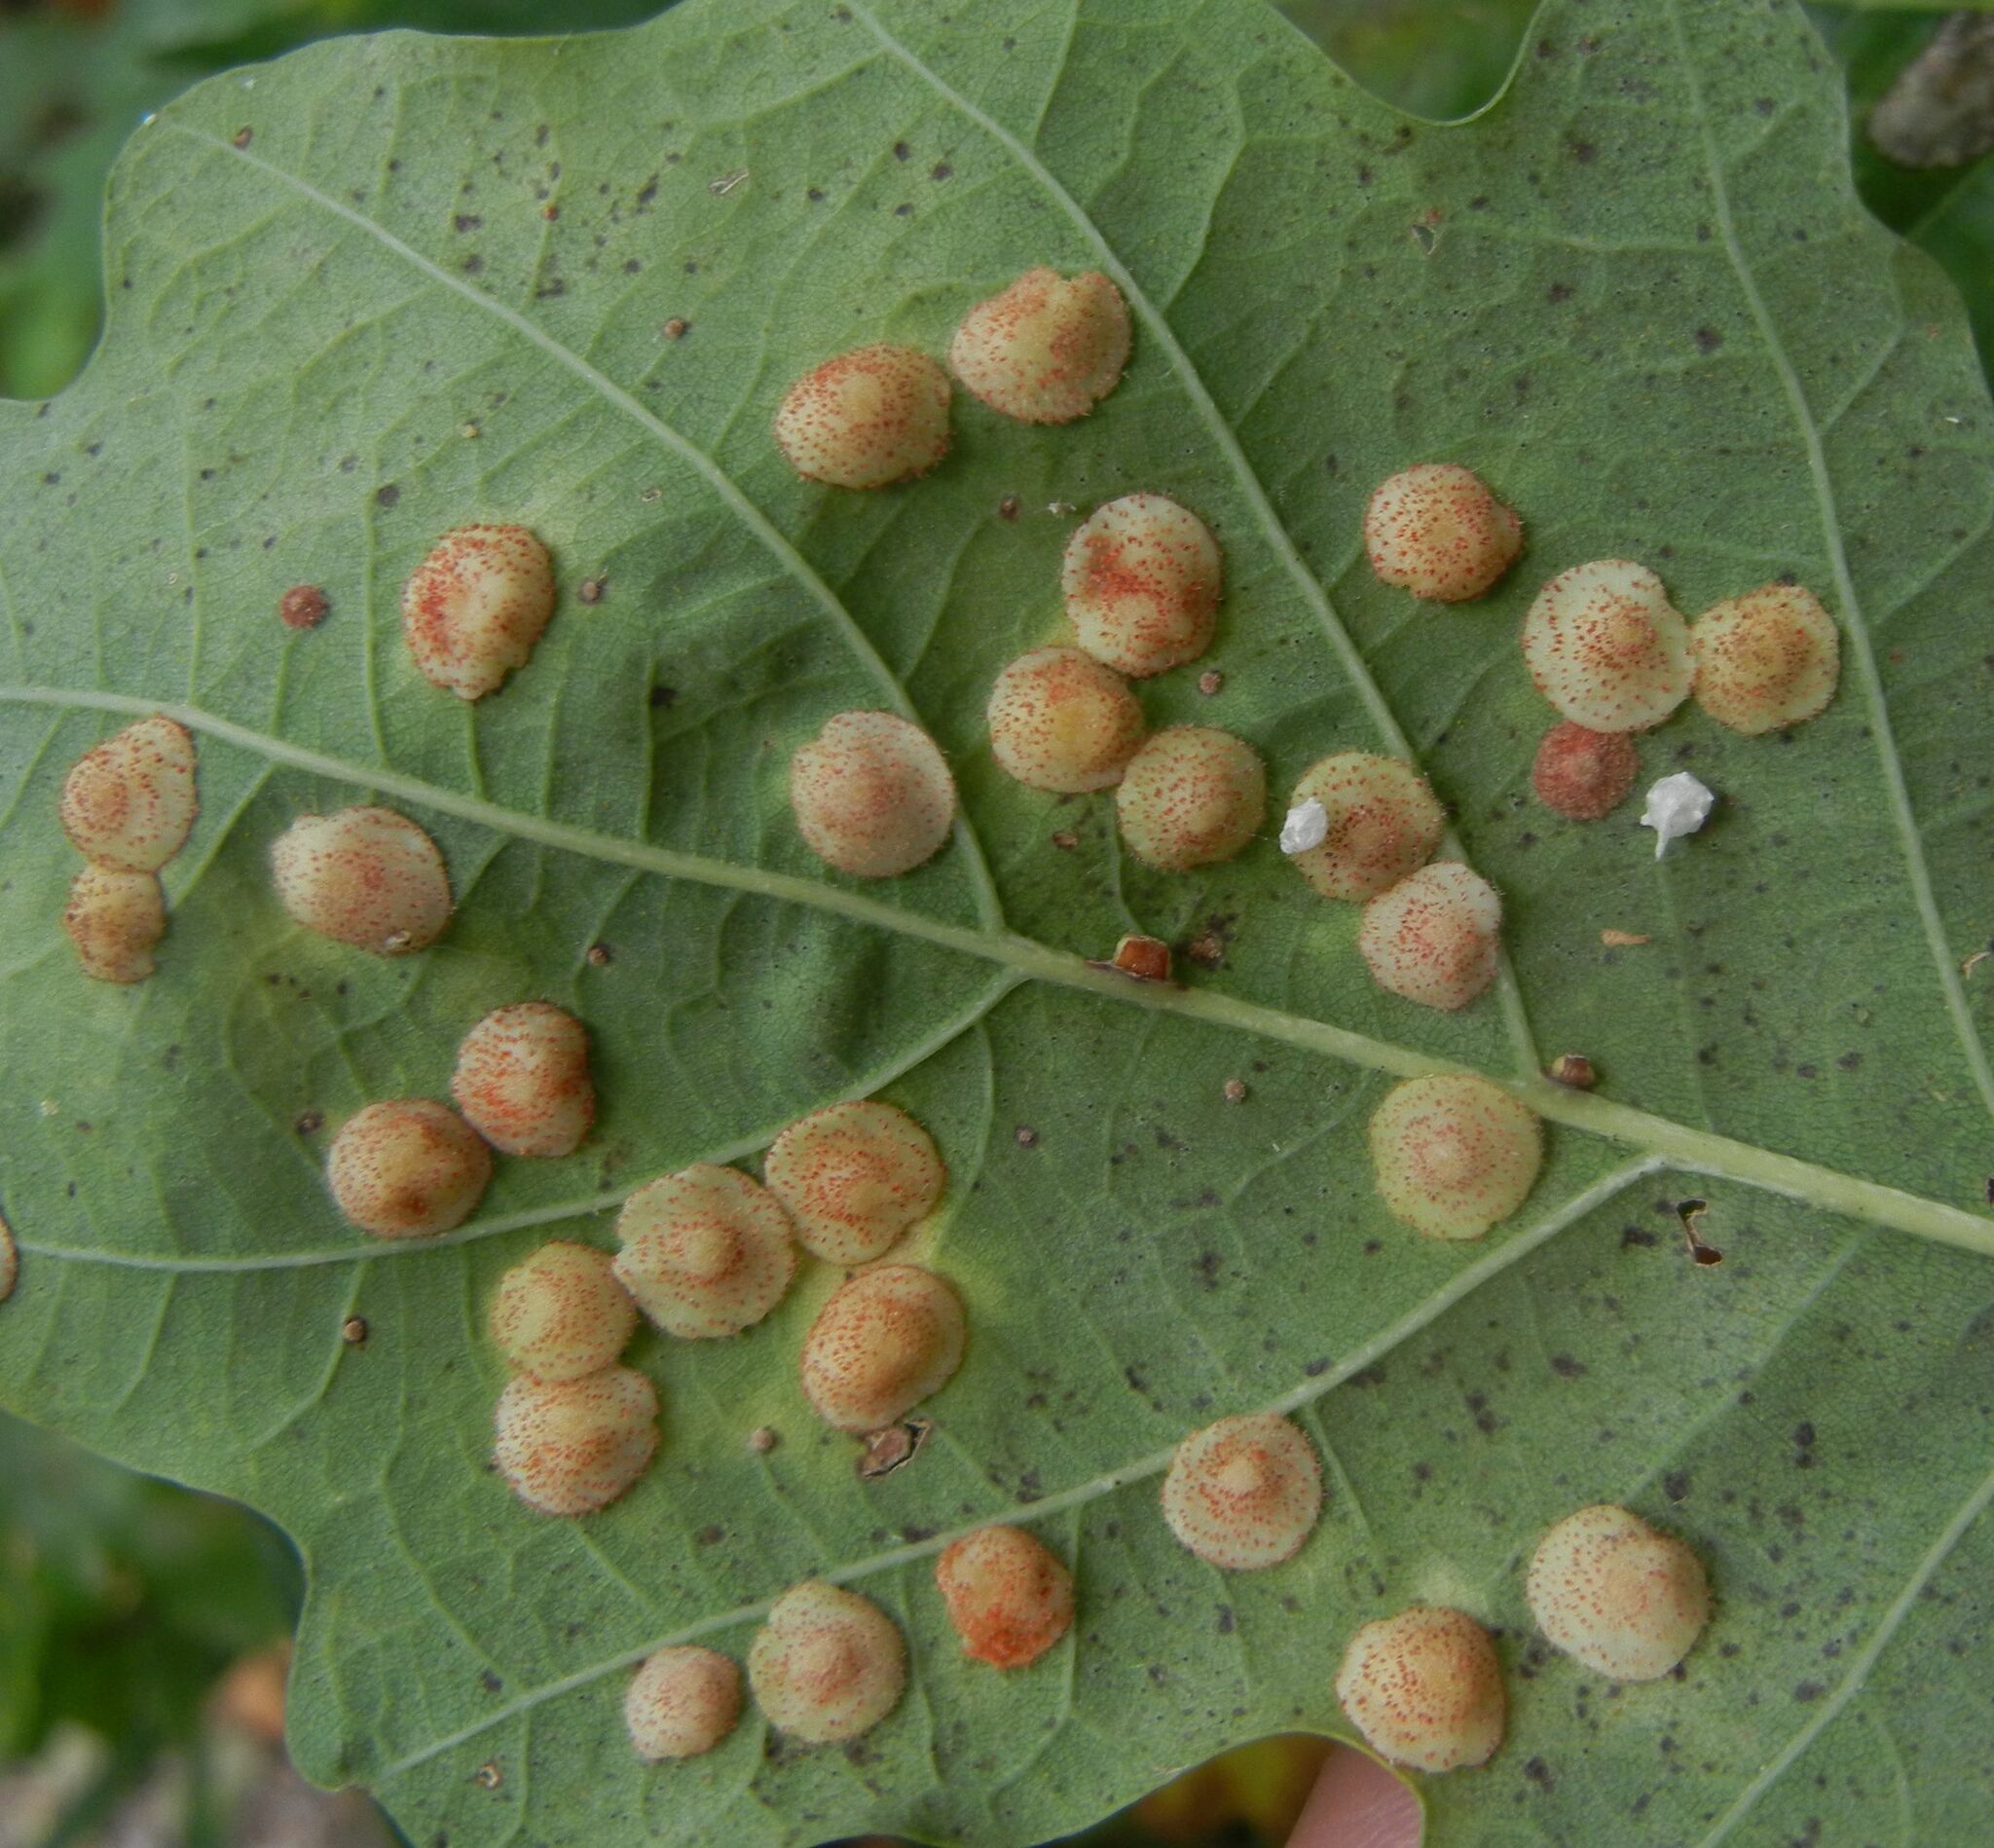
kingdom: Animalia
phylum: Arthropoda
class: Insecta
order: Hymenoptera
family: Cynipidae
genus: Neuroterus
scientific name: Neuroterus quercusbaccarum
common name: Common spangle gall
